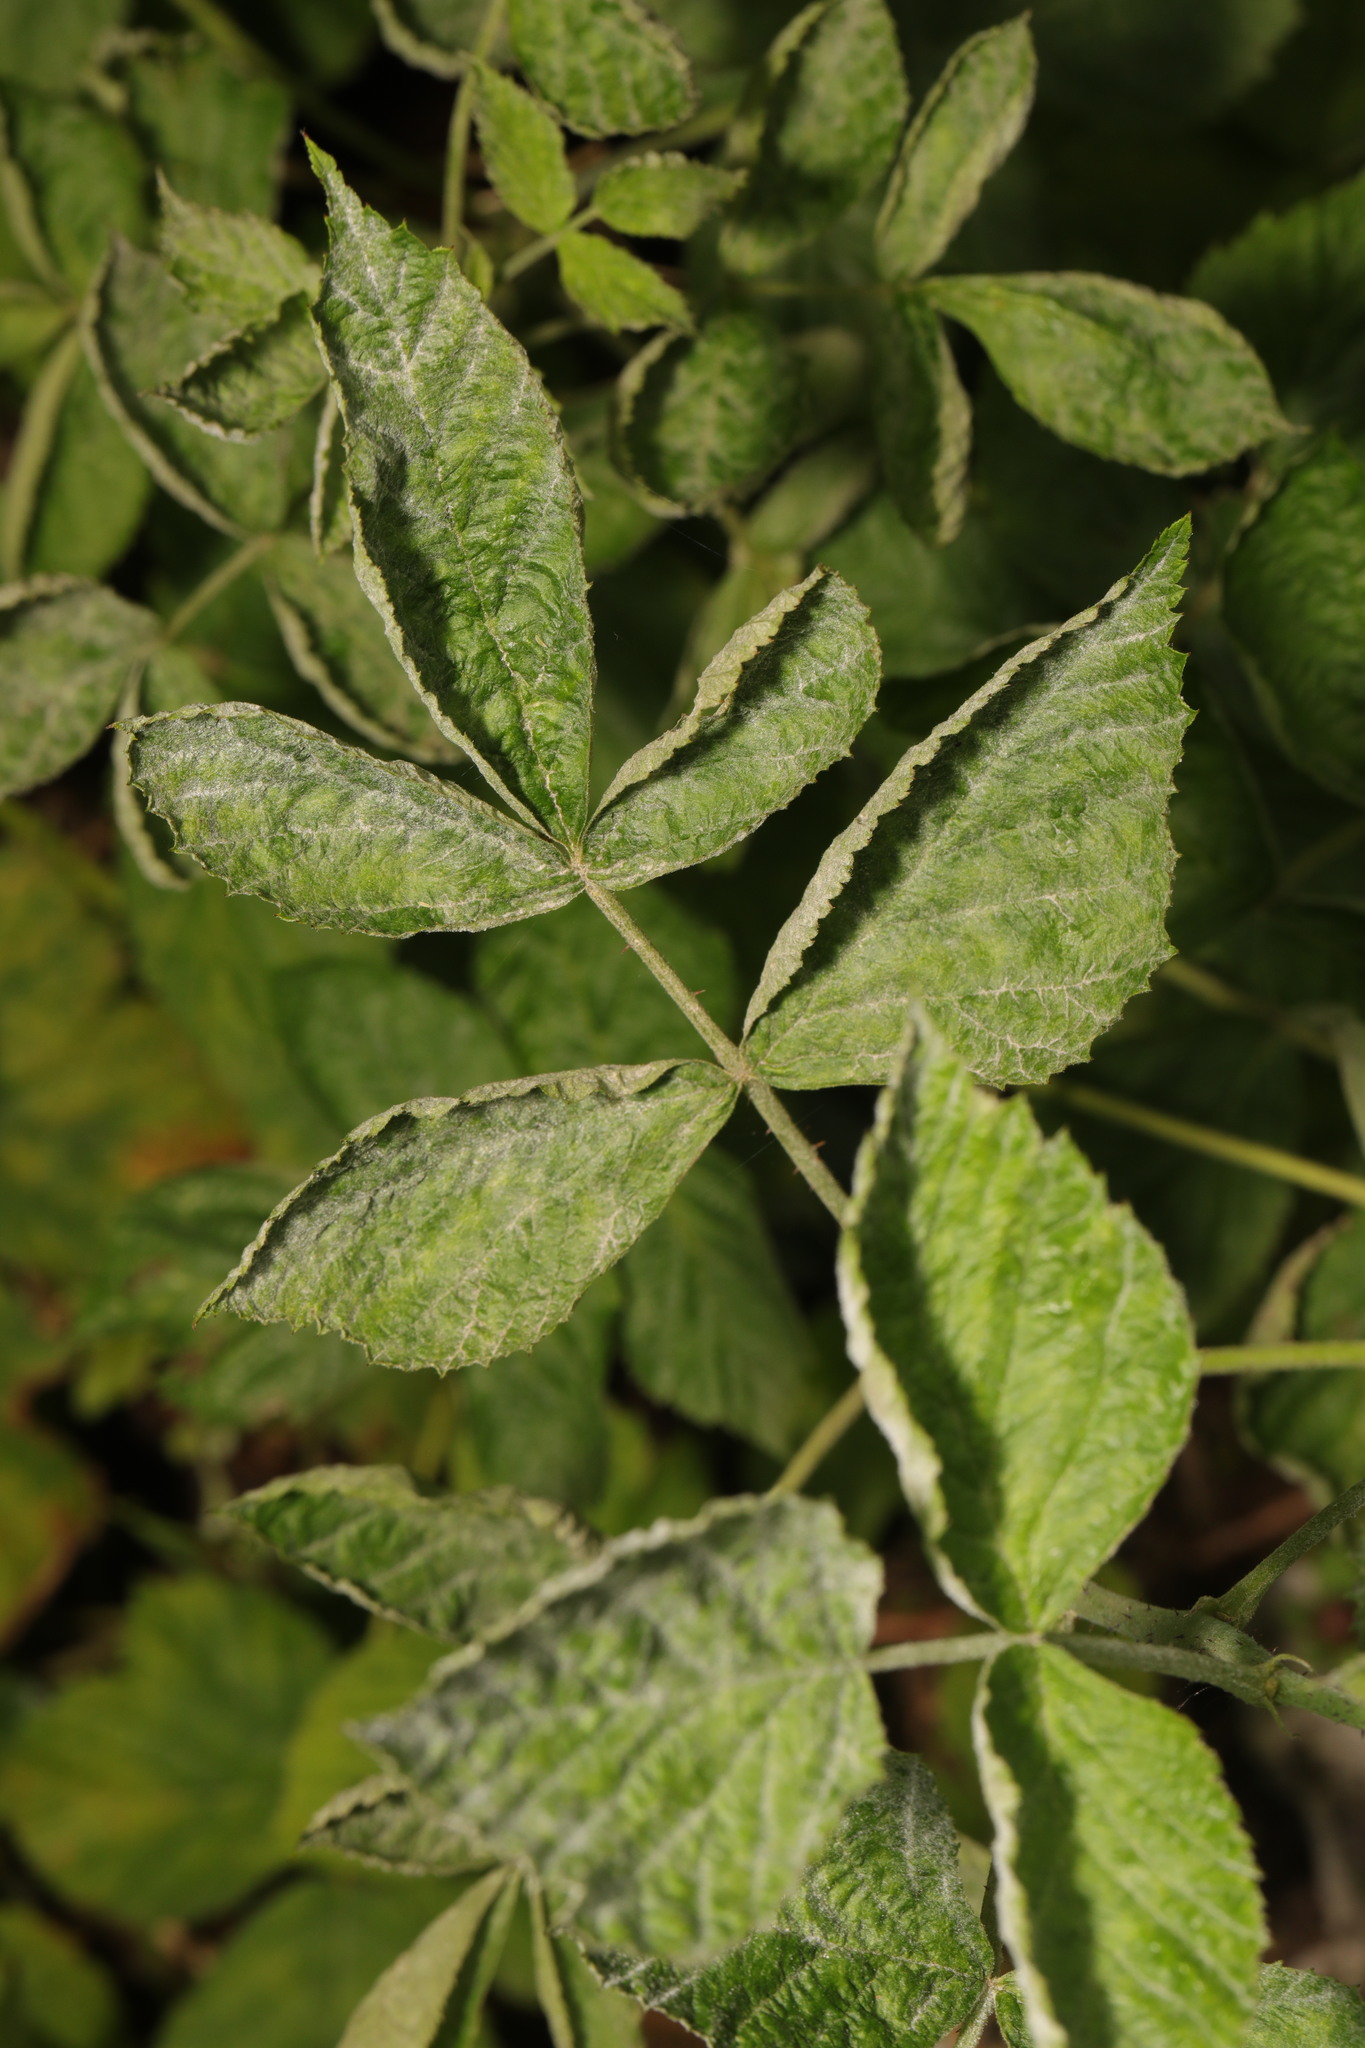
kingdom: Fungi
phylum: Ascomycota
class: Leotiomycetes
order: Helotiales
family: Erysiphaceae
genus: Podosphaera
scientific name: Podosphaera aphanis
